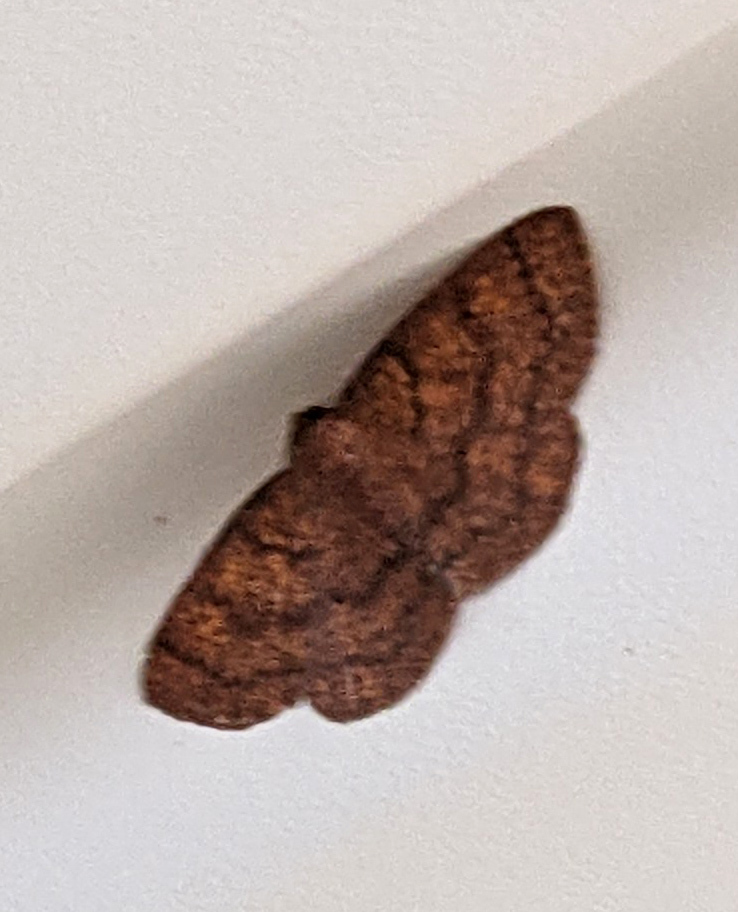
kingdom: Animalia
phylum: Arthropoda
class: Insecta
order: Lepidoptera
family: Geometridae
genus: Ilexia
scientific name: Ilexia intractata
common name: Black-dotted ruddy moth
